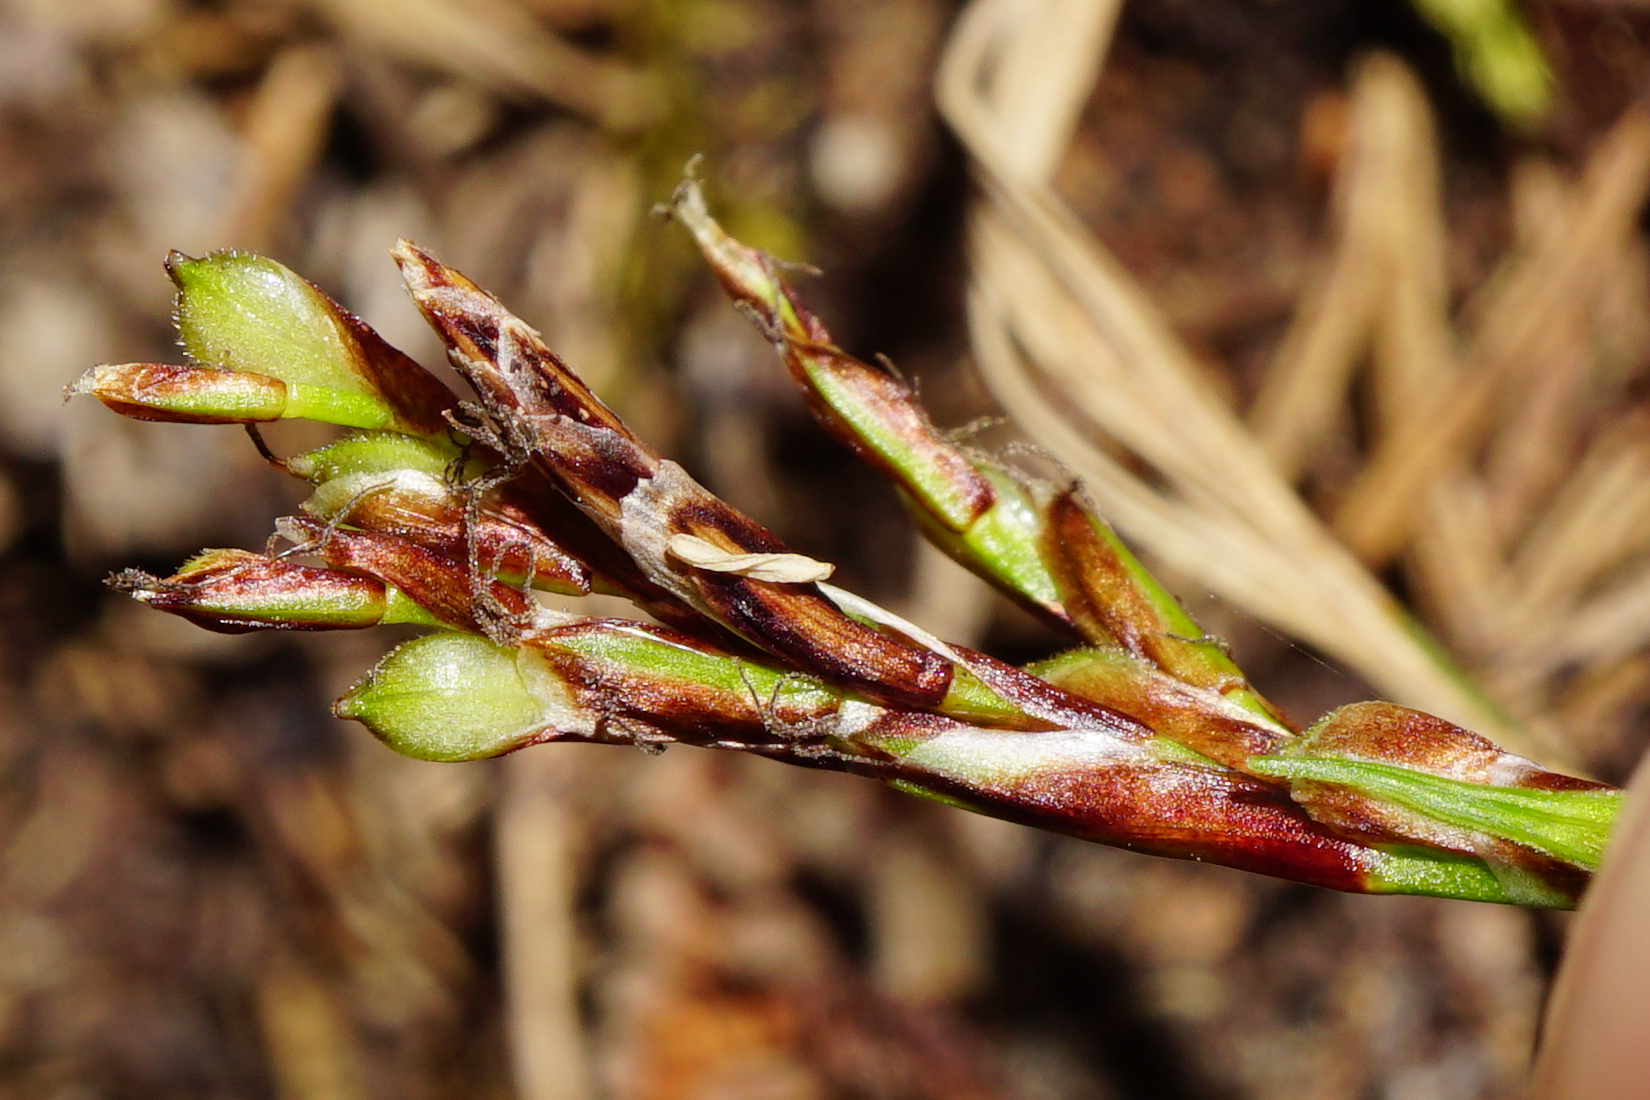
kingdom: Plantae
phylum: Tracheophyta
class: Liliopsida
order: Poales
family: Cyperaceae
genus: Carex
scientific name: Carex ornithopoda
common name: Bird's-foot sedge
